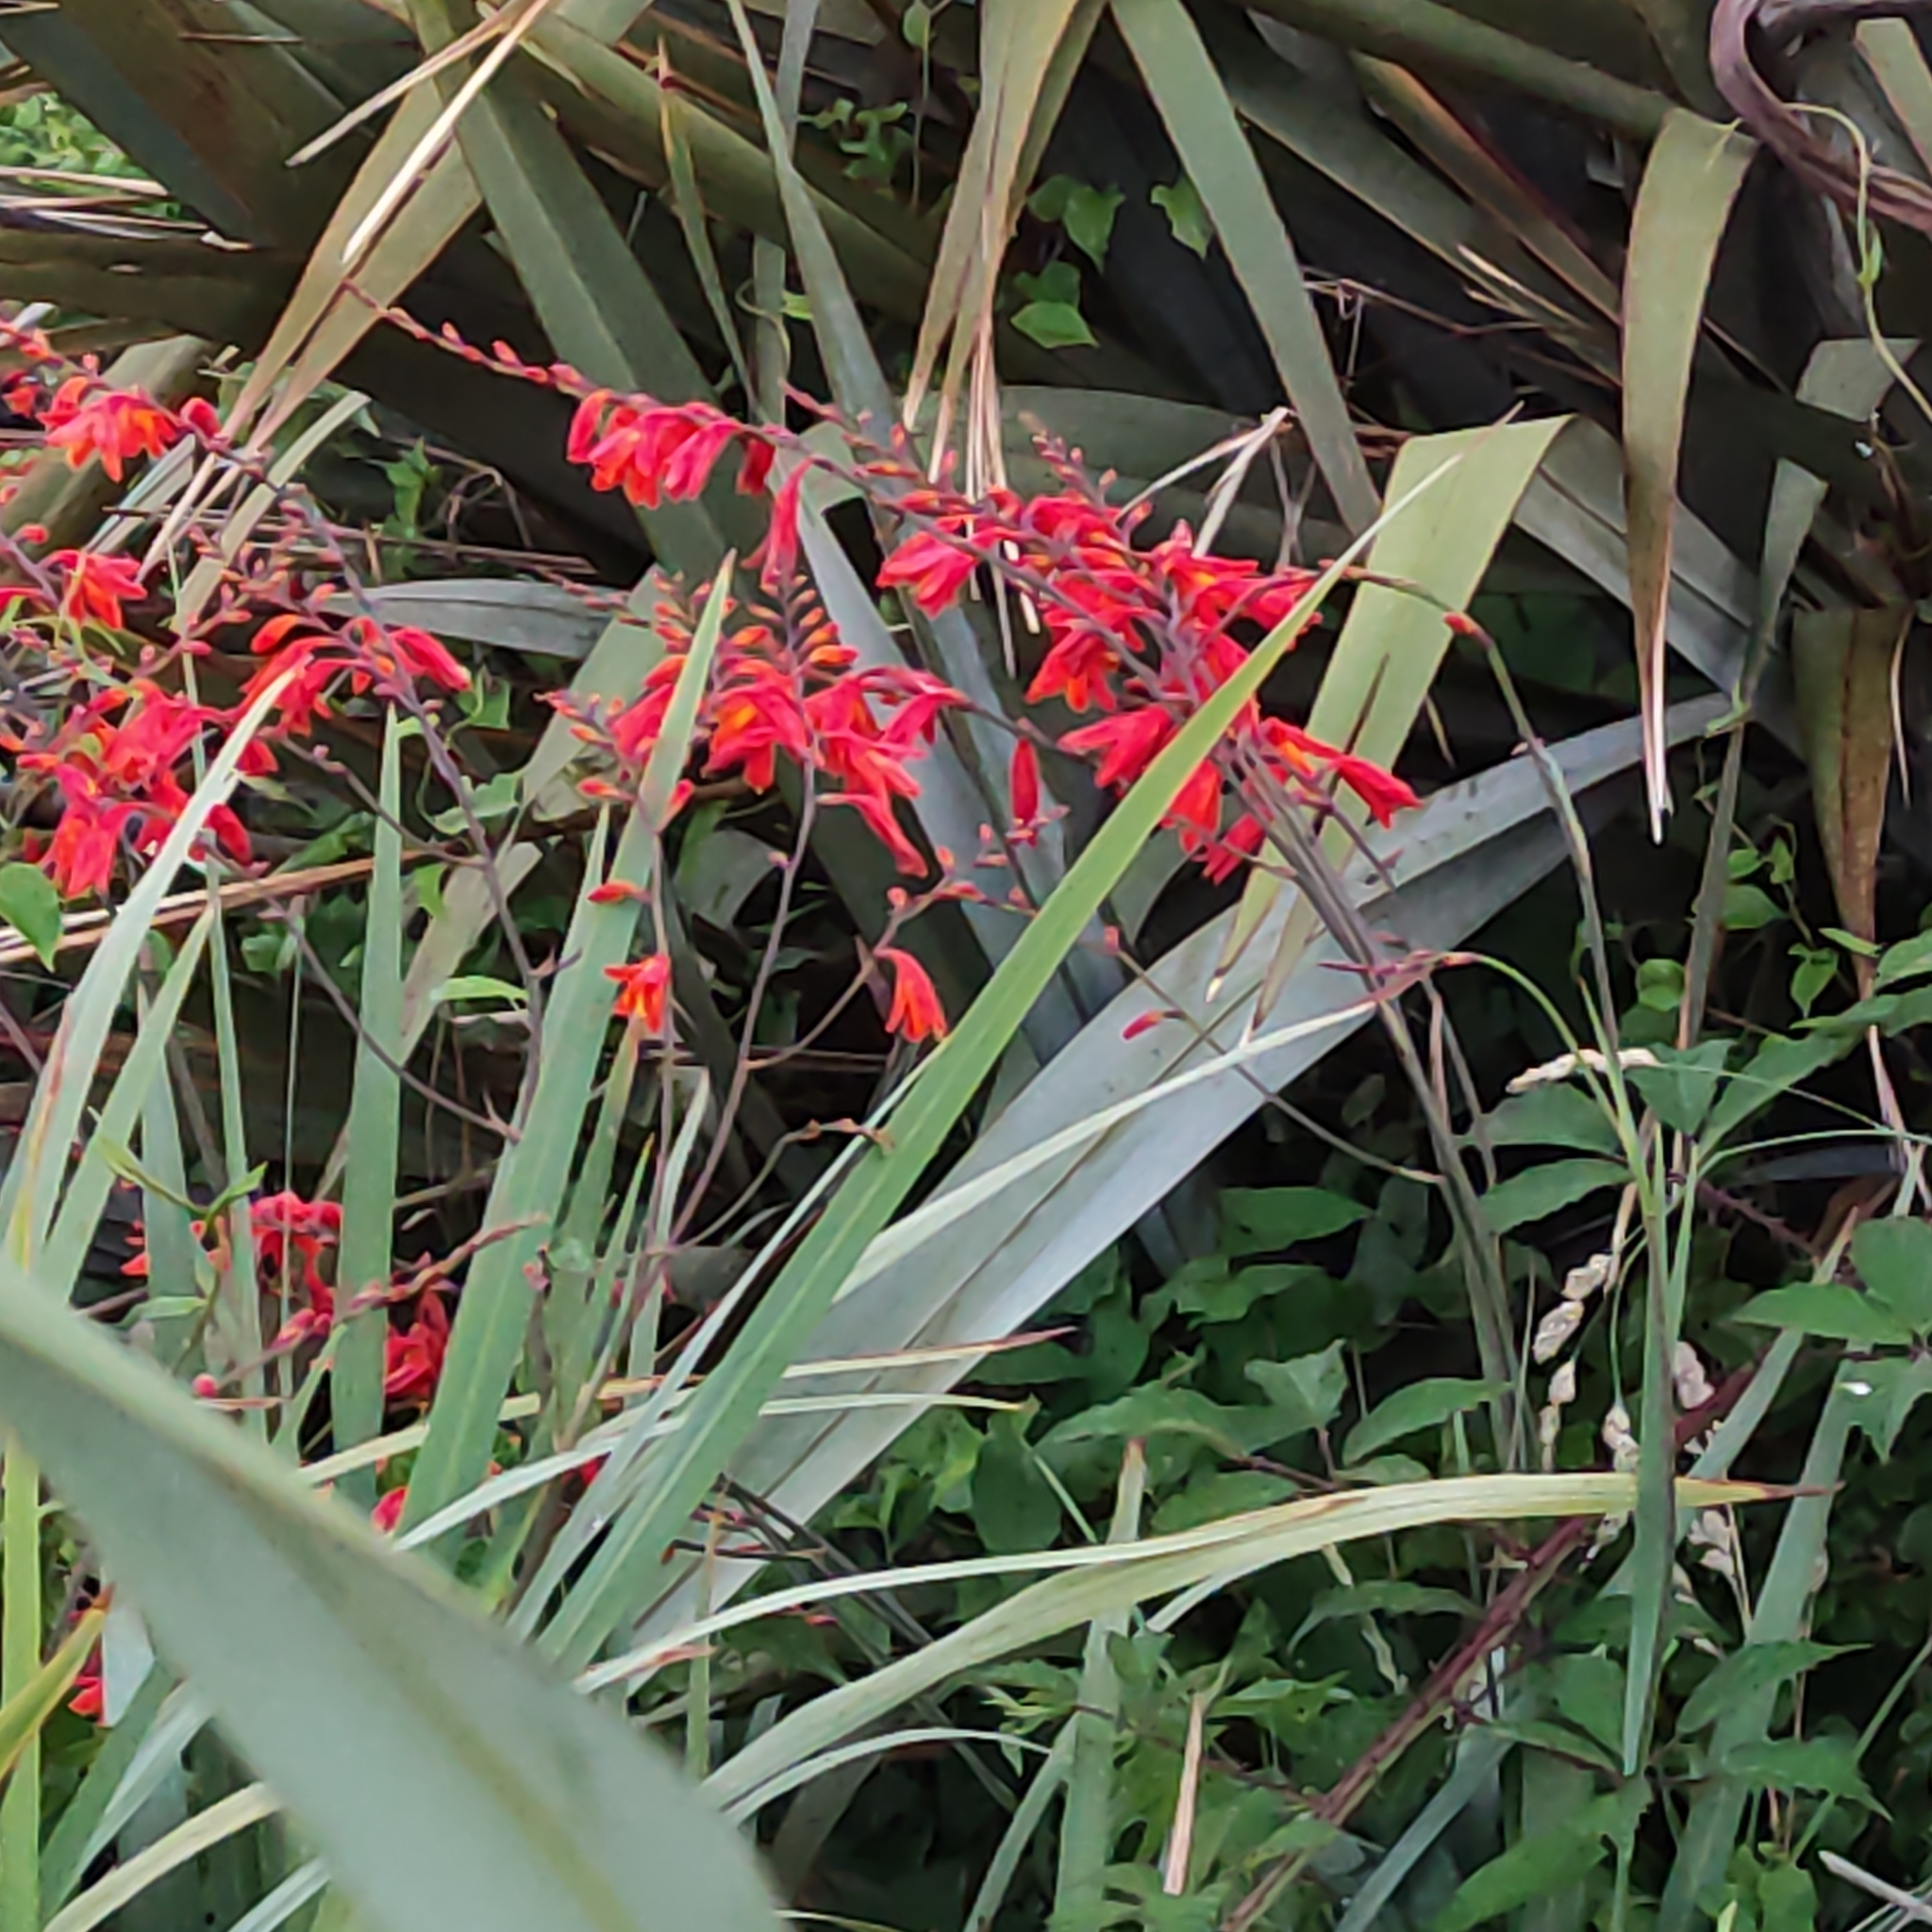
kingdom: Plantae
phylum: Tracheophyta
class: Liliopsida
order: Asparagales
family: Iridaceae
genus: Crocosmia
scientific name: Crocosmia crocosmiiflora
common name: Montbretia
